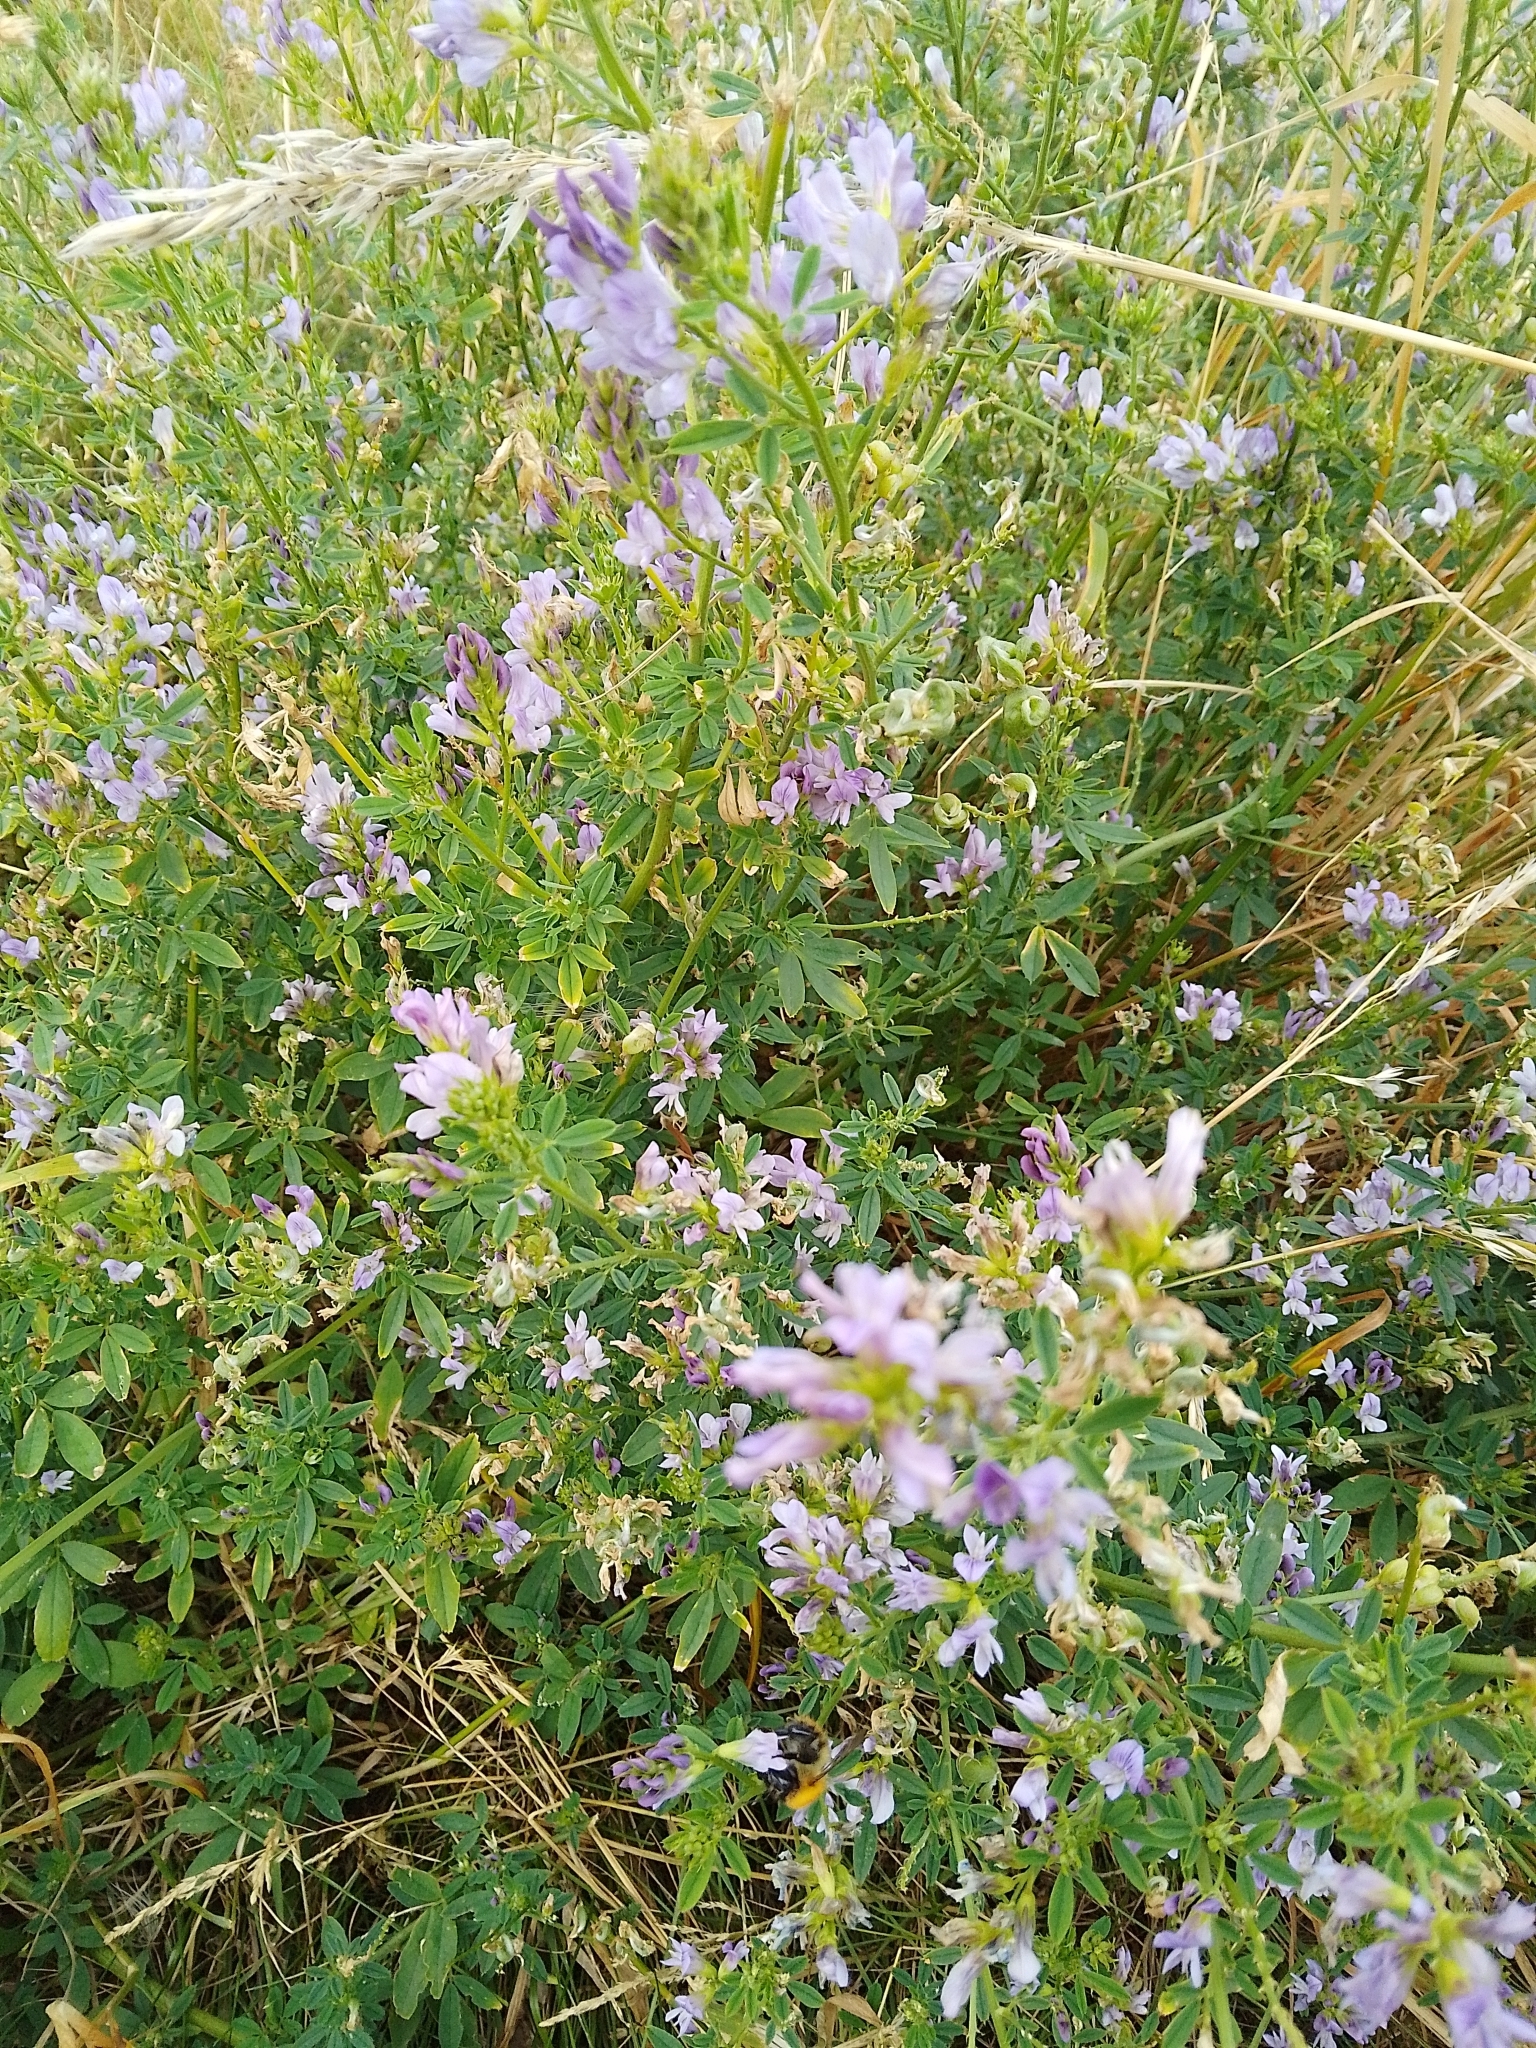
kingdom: Plantae
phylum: Tracheophyta
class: Magnoliopsida
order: Fabales
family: Fabaceae
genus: Medicago
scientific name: Medicago sativa
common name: Alfalfa
